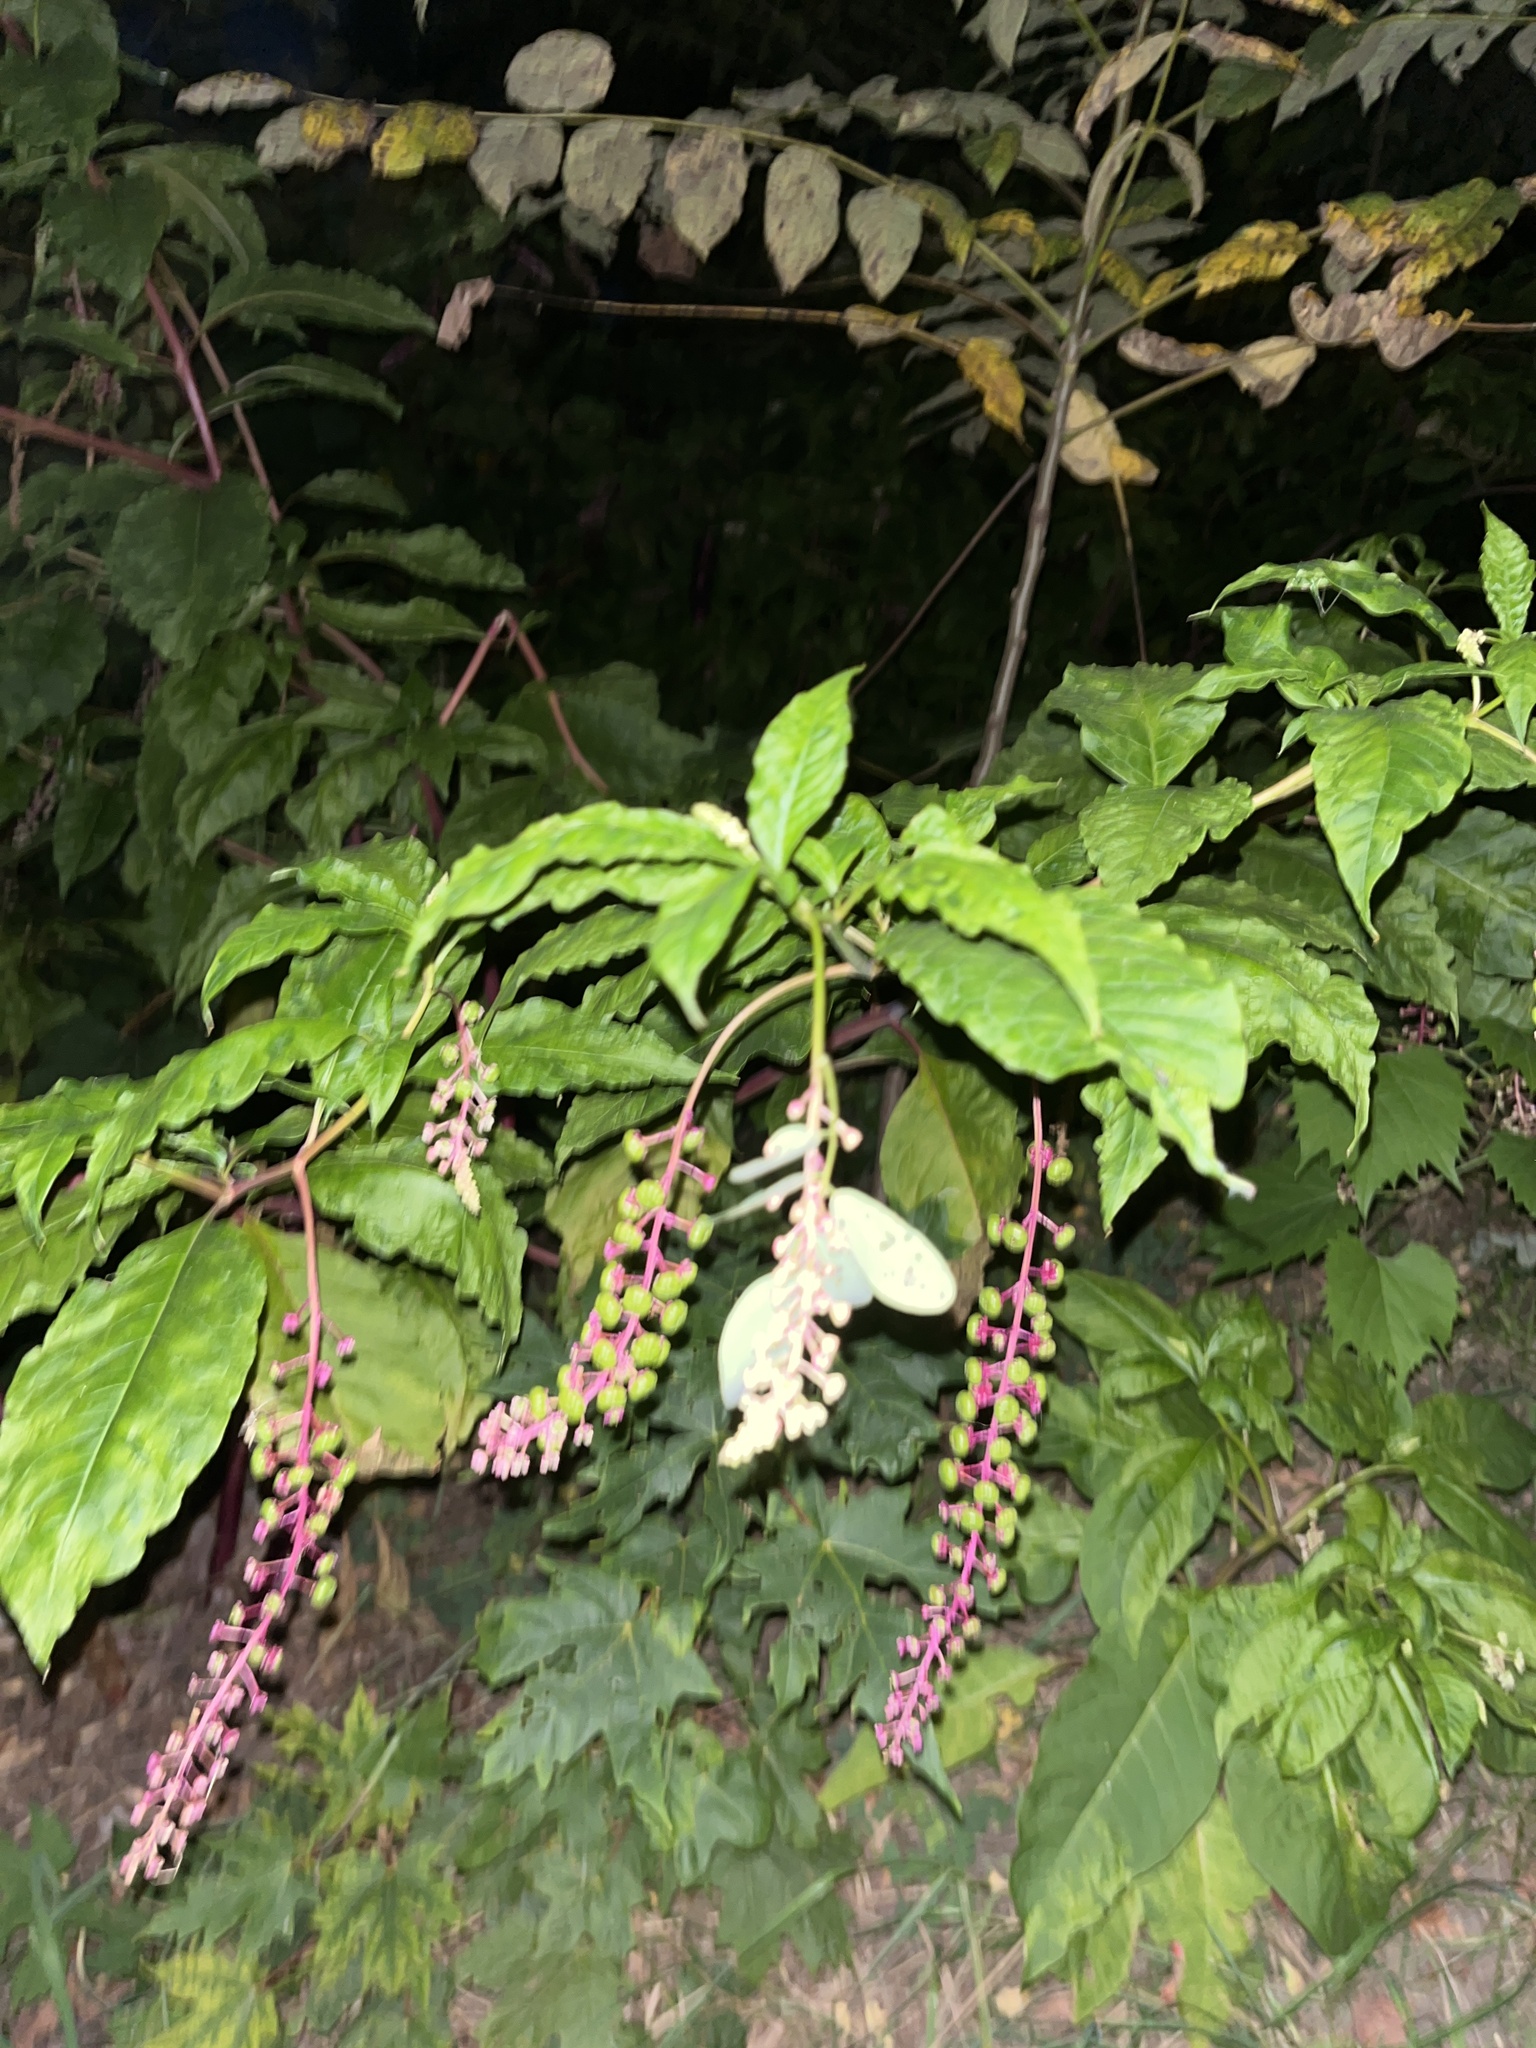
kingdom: Plantae
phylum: Tracheophyta
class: Magnoliopsida
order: Caryophyllales
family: Phytolaccaceae
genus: Phytolacca
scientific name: Phytolacca americana
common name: American pokeweed
